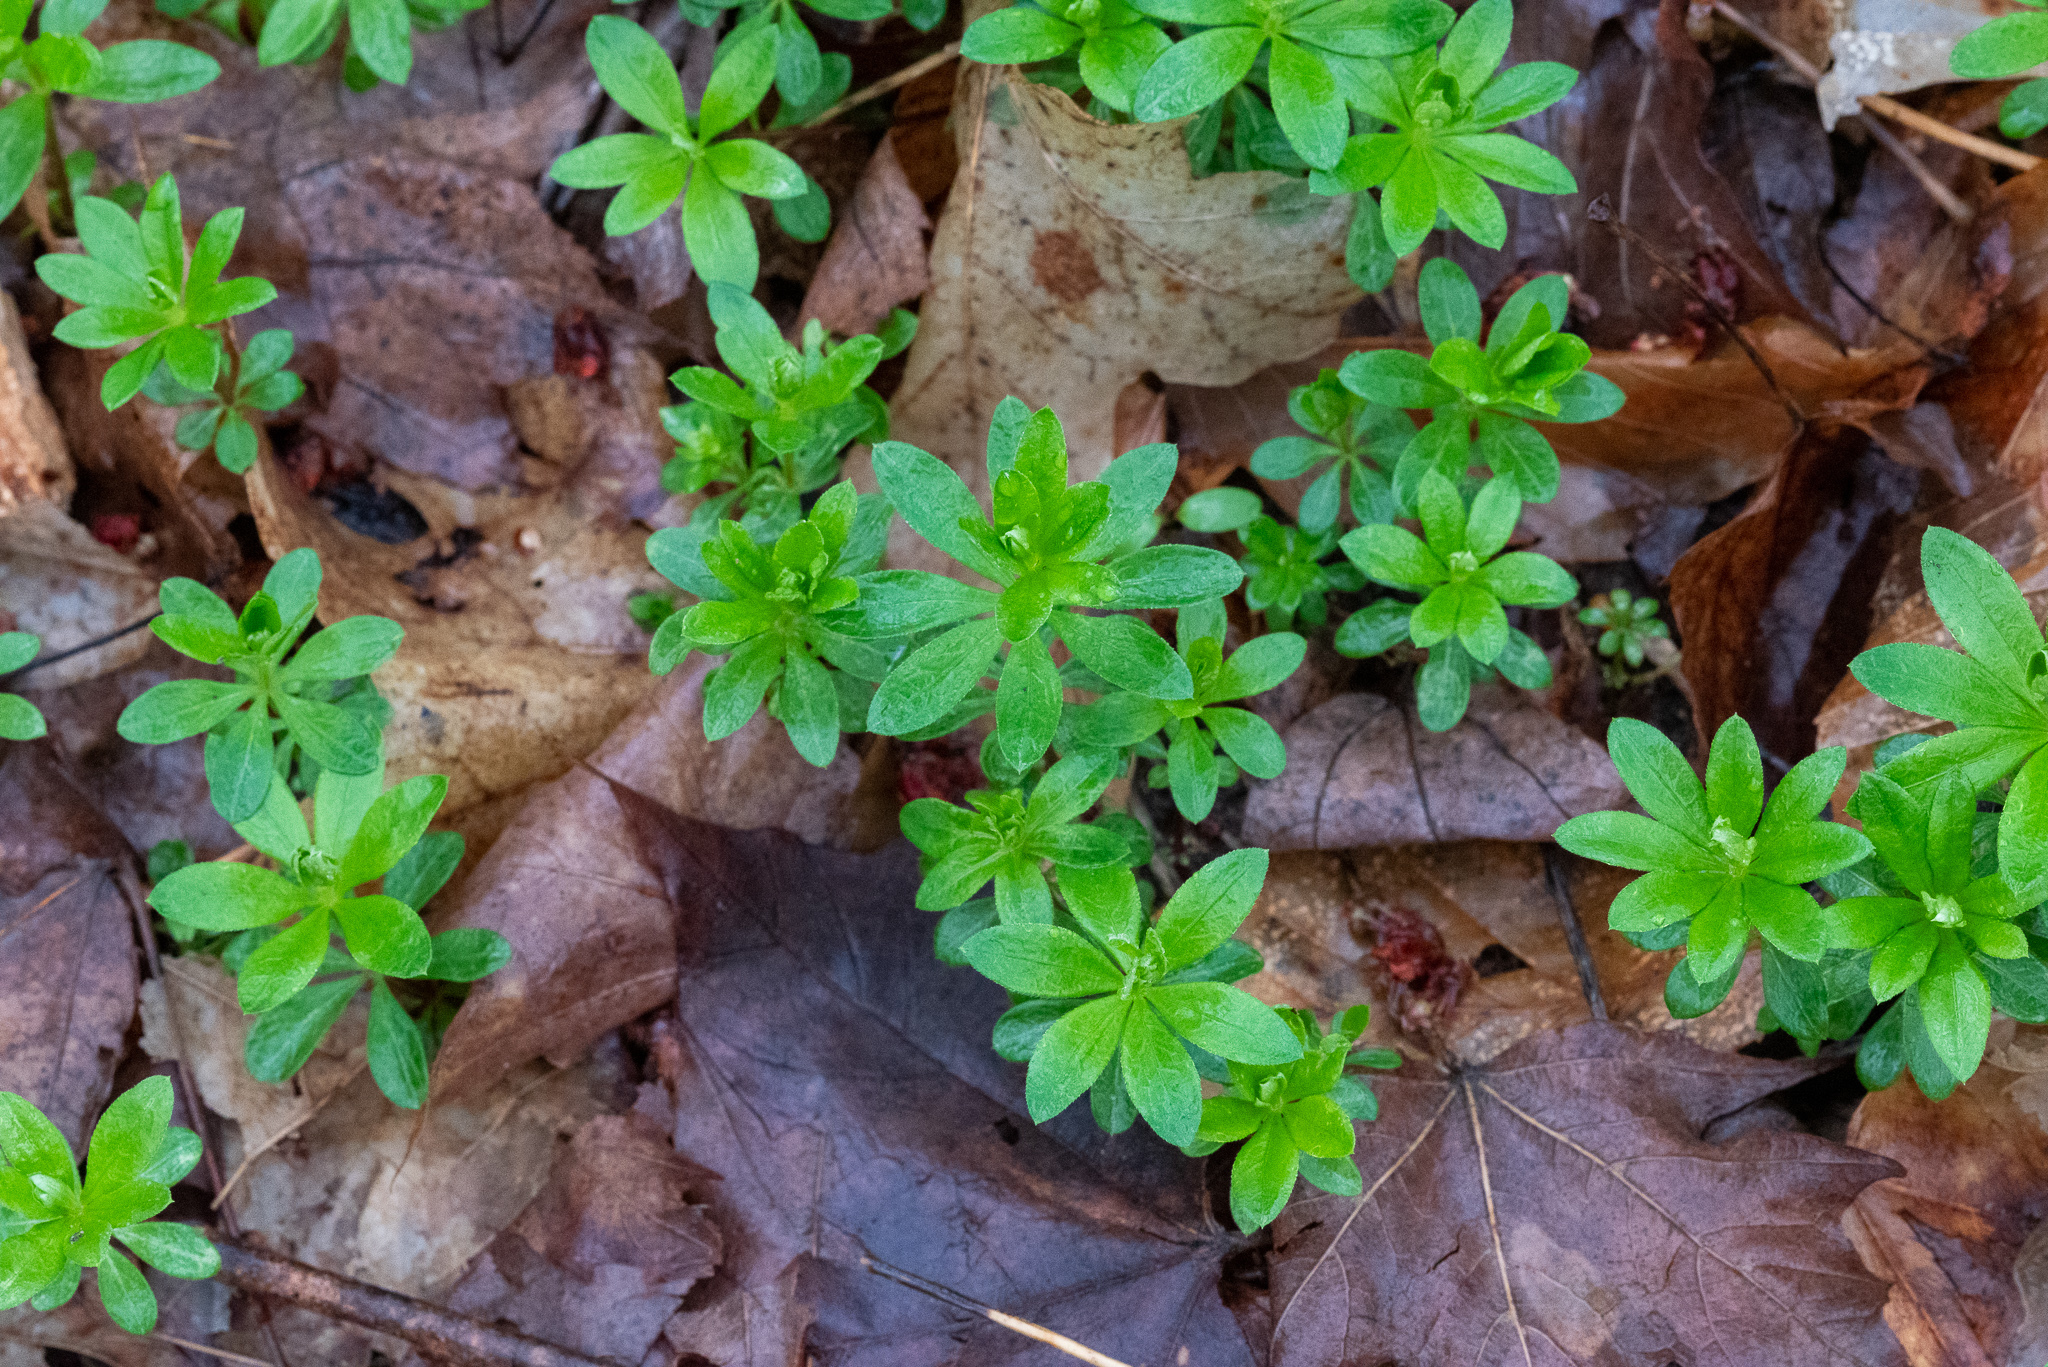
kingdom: Plantae
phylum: Tracheophyta
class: Magnoliopsida
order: Gentianales
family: Rubiaceae
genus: Galium
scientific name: Galium odoratum
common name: Sweet woodruff
